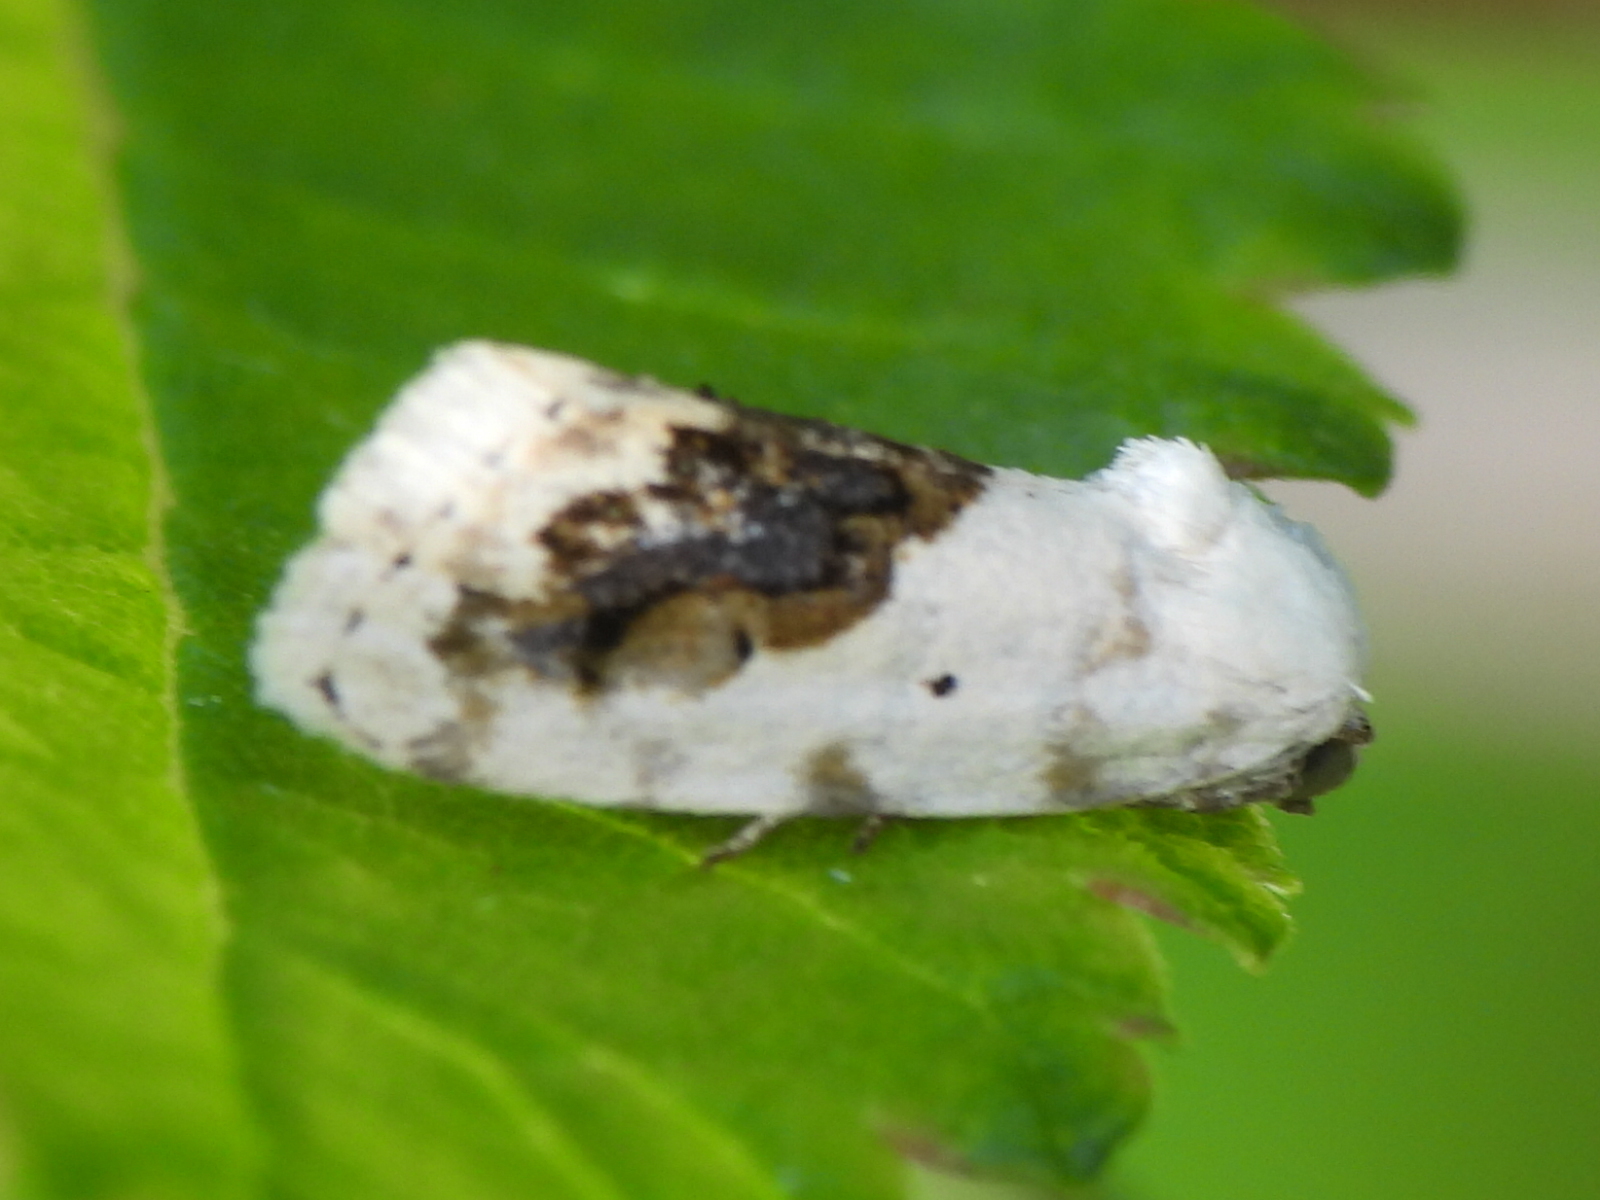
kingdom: Animalia
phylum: Arthropoda
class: Insecta
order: Lepidoptera
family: Noctuidae
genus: Acontia
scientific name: Acontia erastrioides
